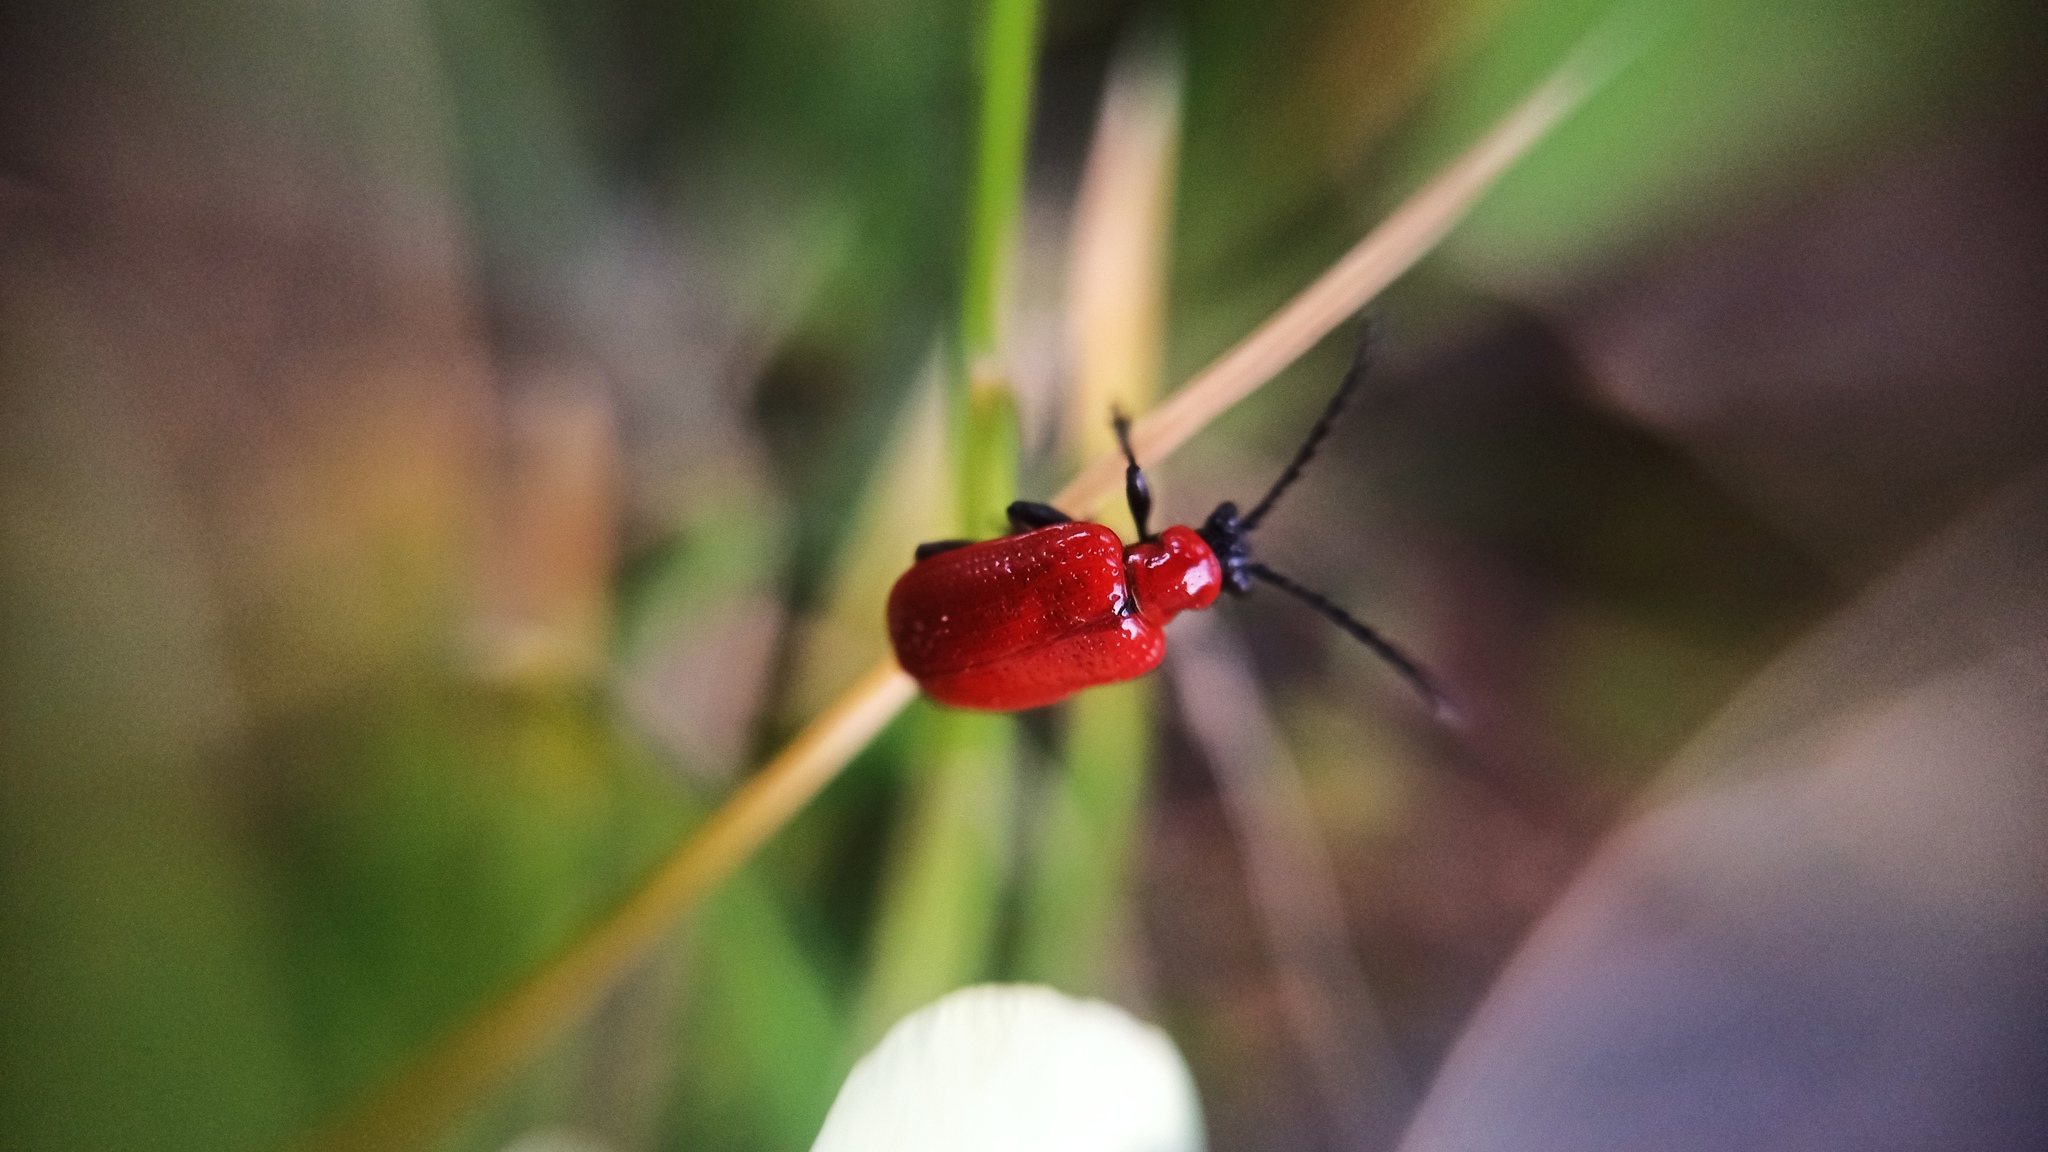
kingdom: Animalia
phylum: Arthropoda
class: Insecta
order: Coleoptera
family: Chrysomelidae
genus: Lilioceris
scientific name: Lilioceris lilii
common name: Lily beetle
